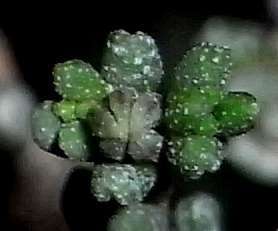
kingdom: Plantae
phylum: Tracheophyta
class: Magnoliopsida
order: Caryophyllales
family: Frankeniaceae
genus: Frankenia
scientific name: Frankenia sessilis
